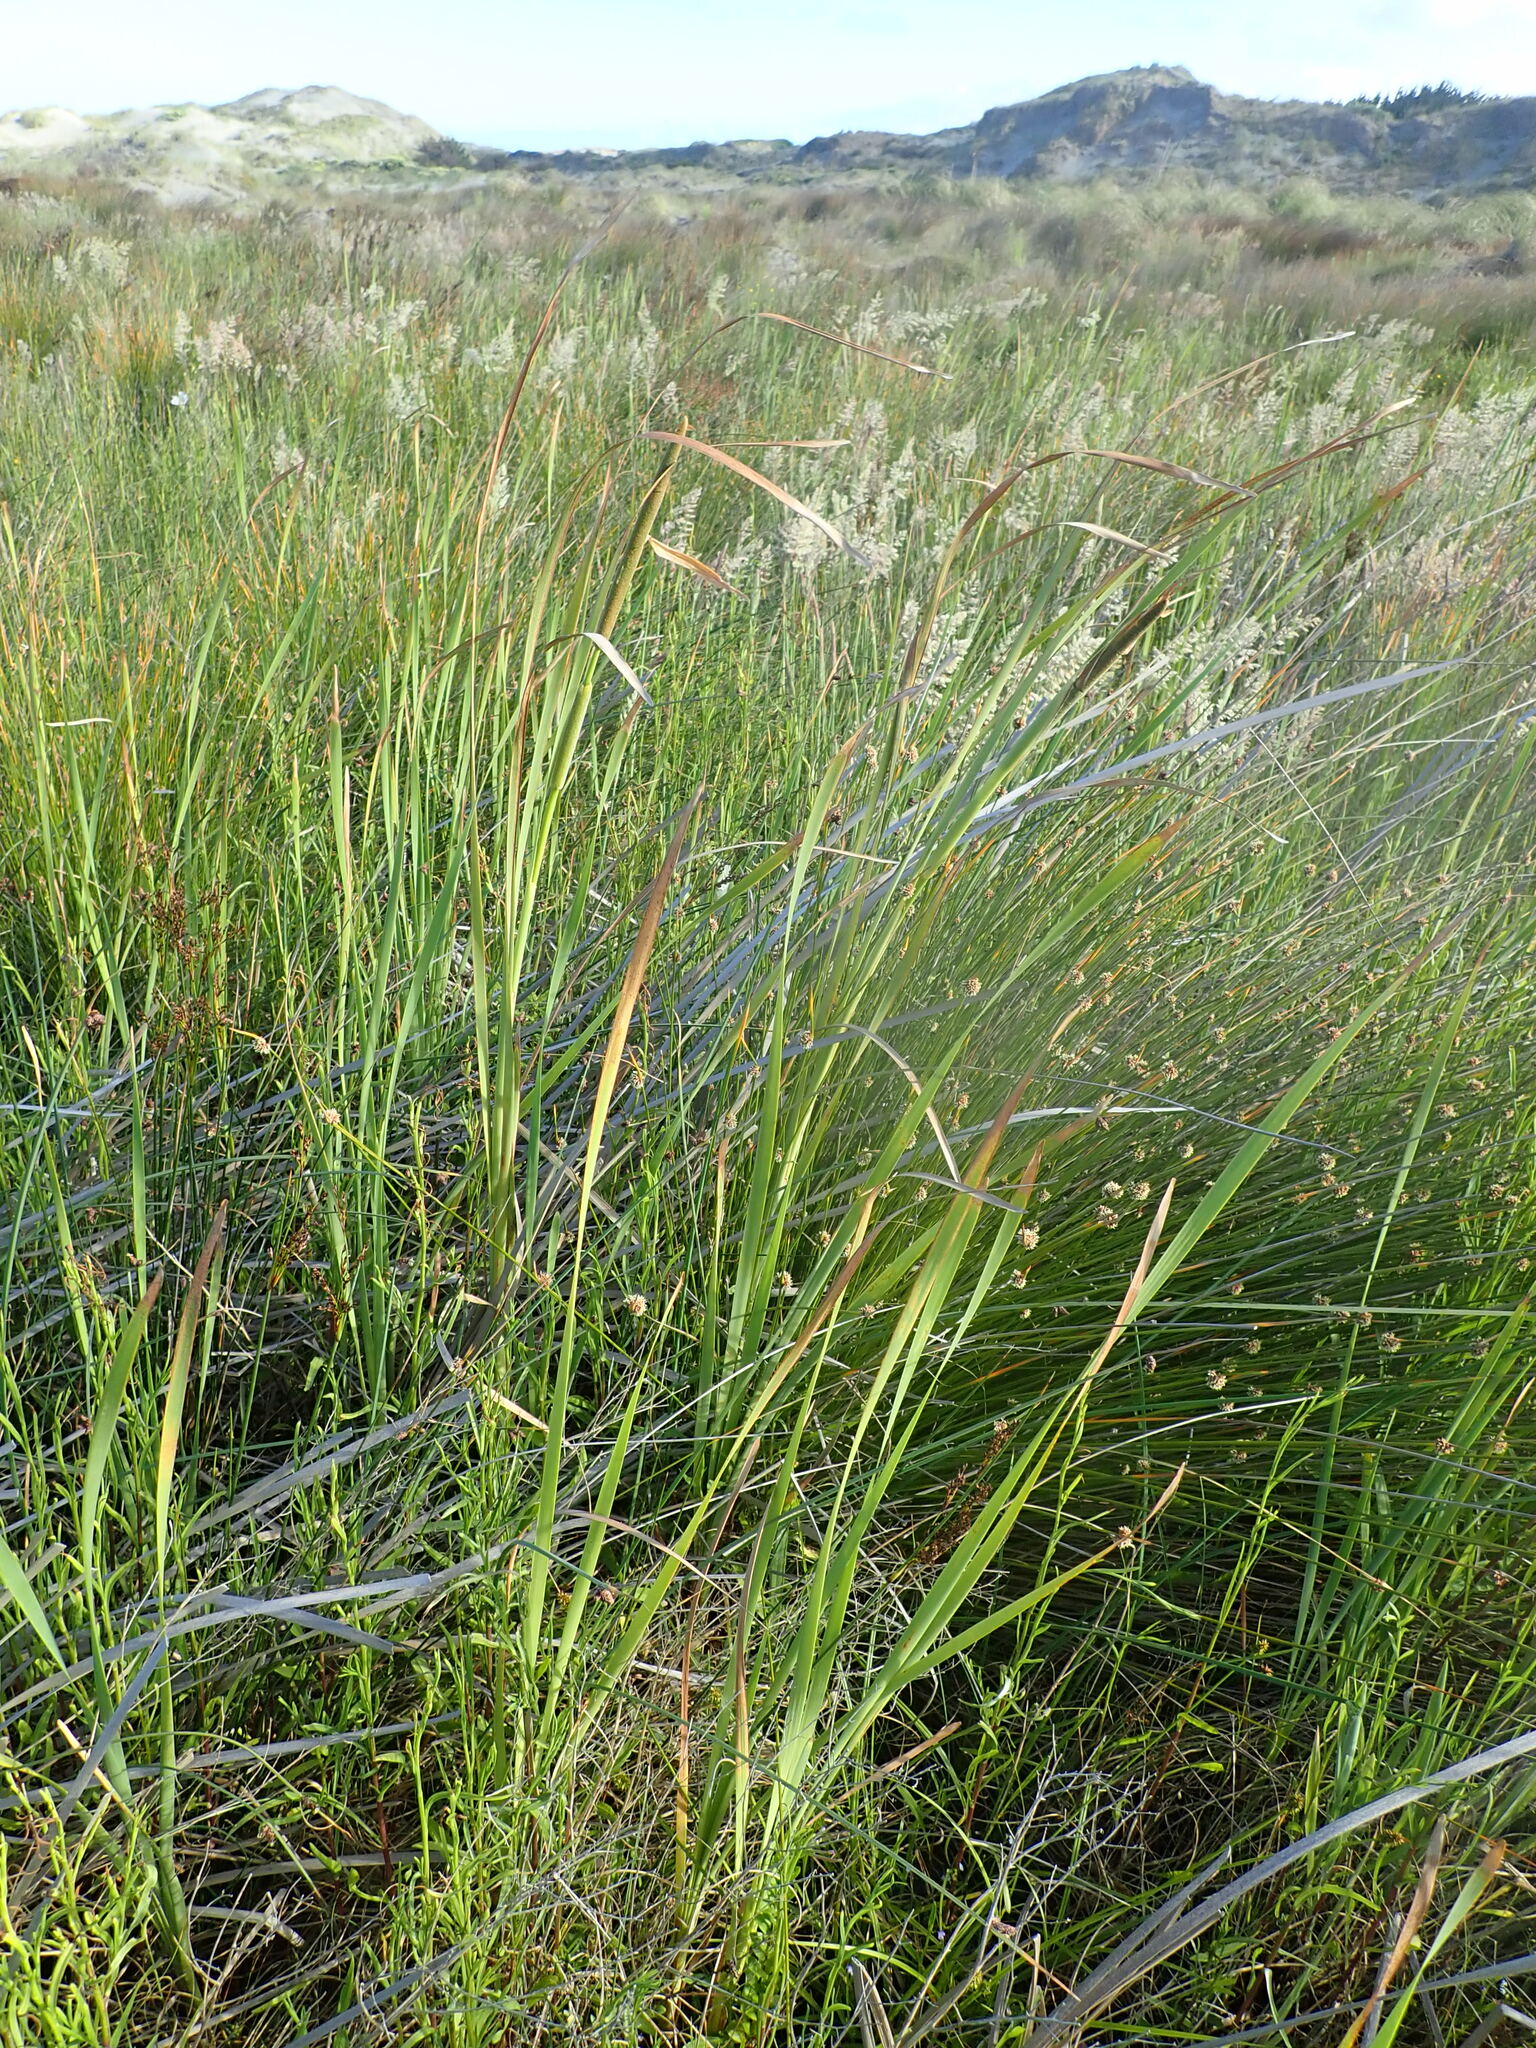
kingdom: Plantae
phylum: Tracheophyta
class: Liliopsida
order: Poales
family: Typhaceae
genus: Typha
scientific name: Typha orientalis
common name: Bullrush
